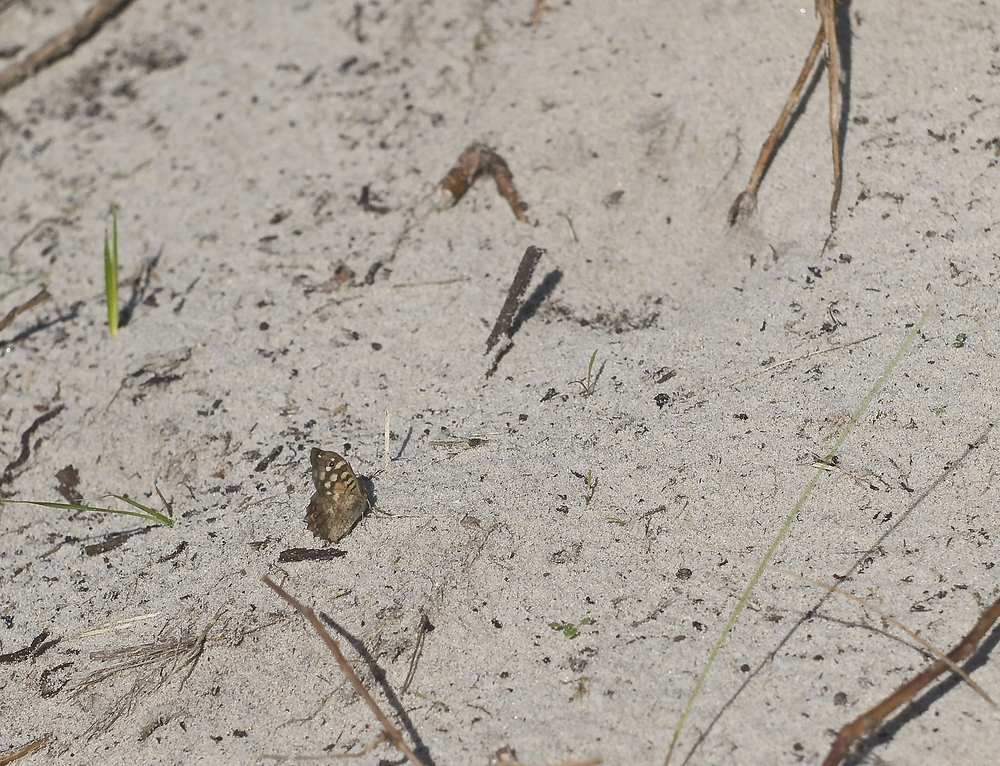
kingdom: Animalia
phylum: Arthropoda
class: Insecta
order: Lepidoptera
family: Nymphalidae
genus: Pararge
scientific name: Pararge aegeria
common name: Speckled wood
